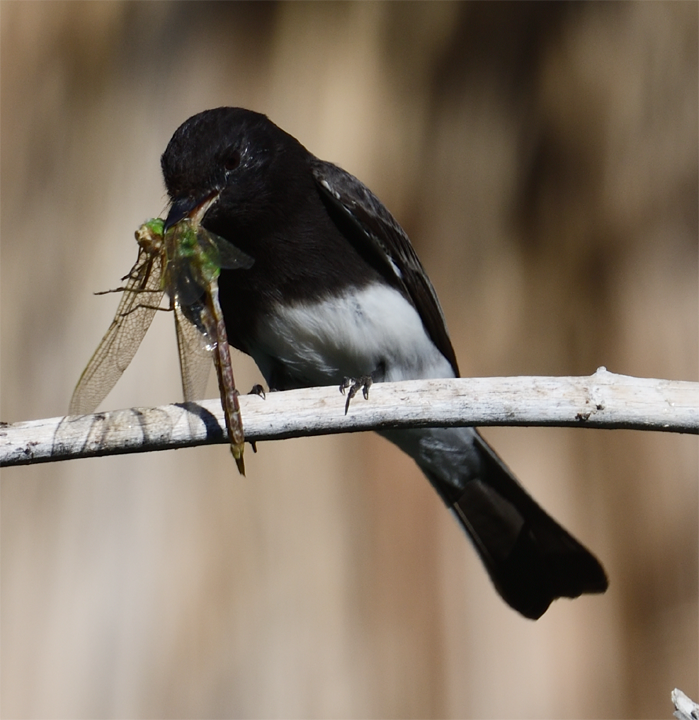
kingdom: Animalia
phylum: Chordata
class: Aves
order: Passeriformes
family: Tyrannidae
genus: Sayornis
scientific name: Sayornis nigricans
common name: Black phoebe
